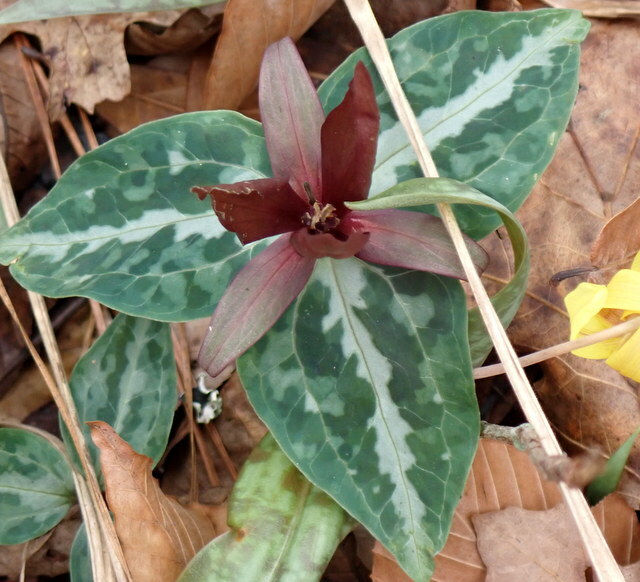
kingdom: Plantae
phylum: Tracheophyta
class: Liliopsida
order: Liliales
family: Melanthiaceae
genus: Trillium
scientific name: Trillium underwoodii
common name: Longbract wakerobin
